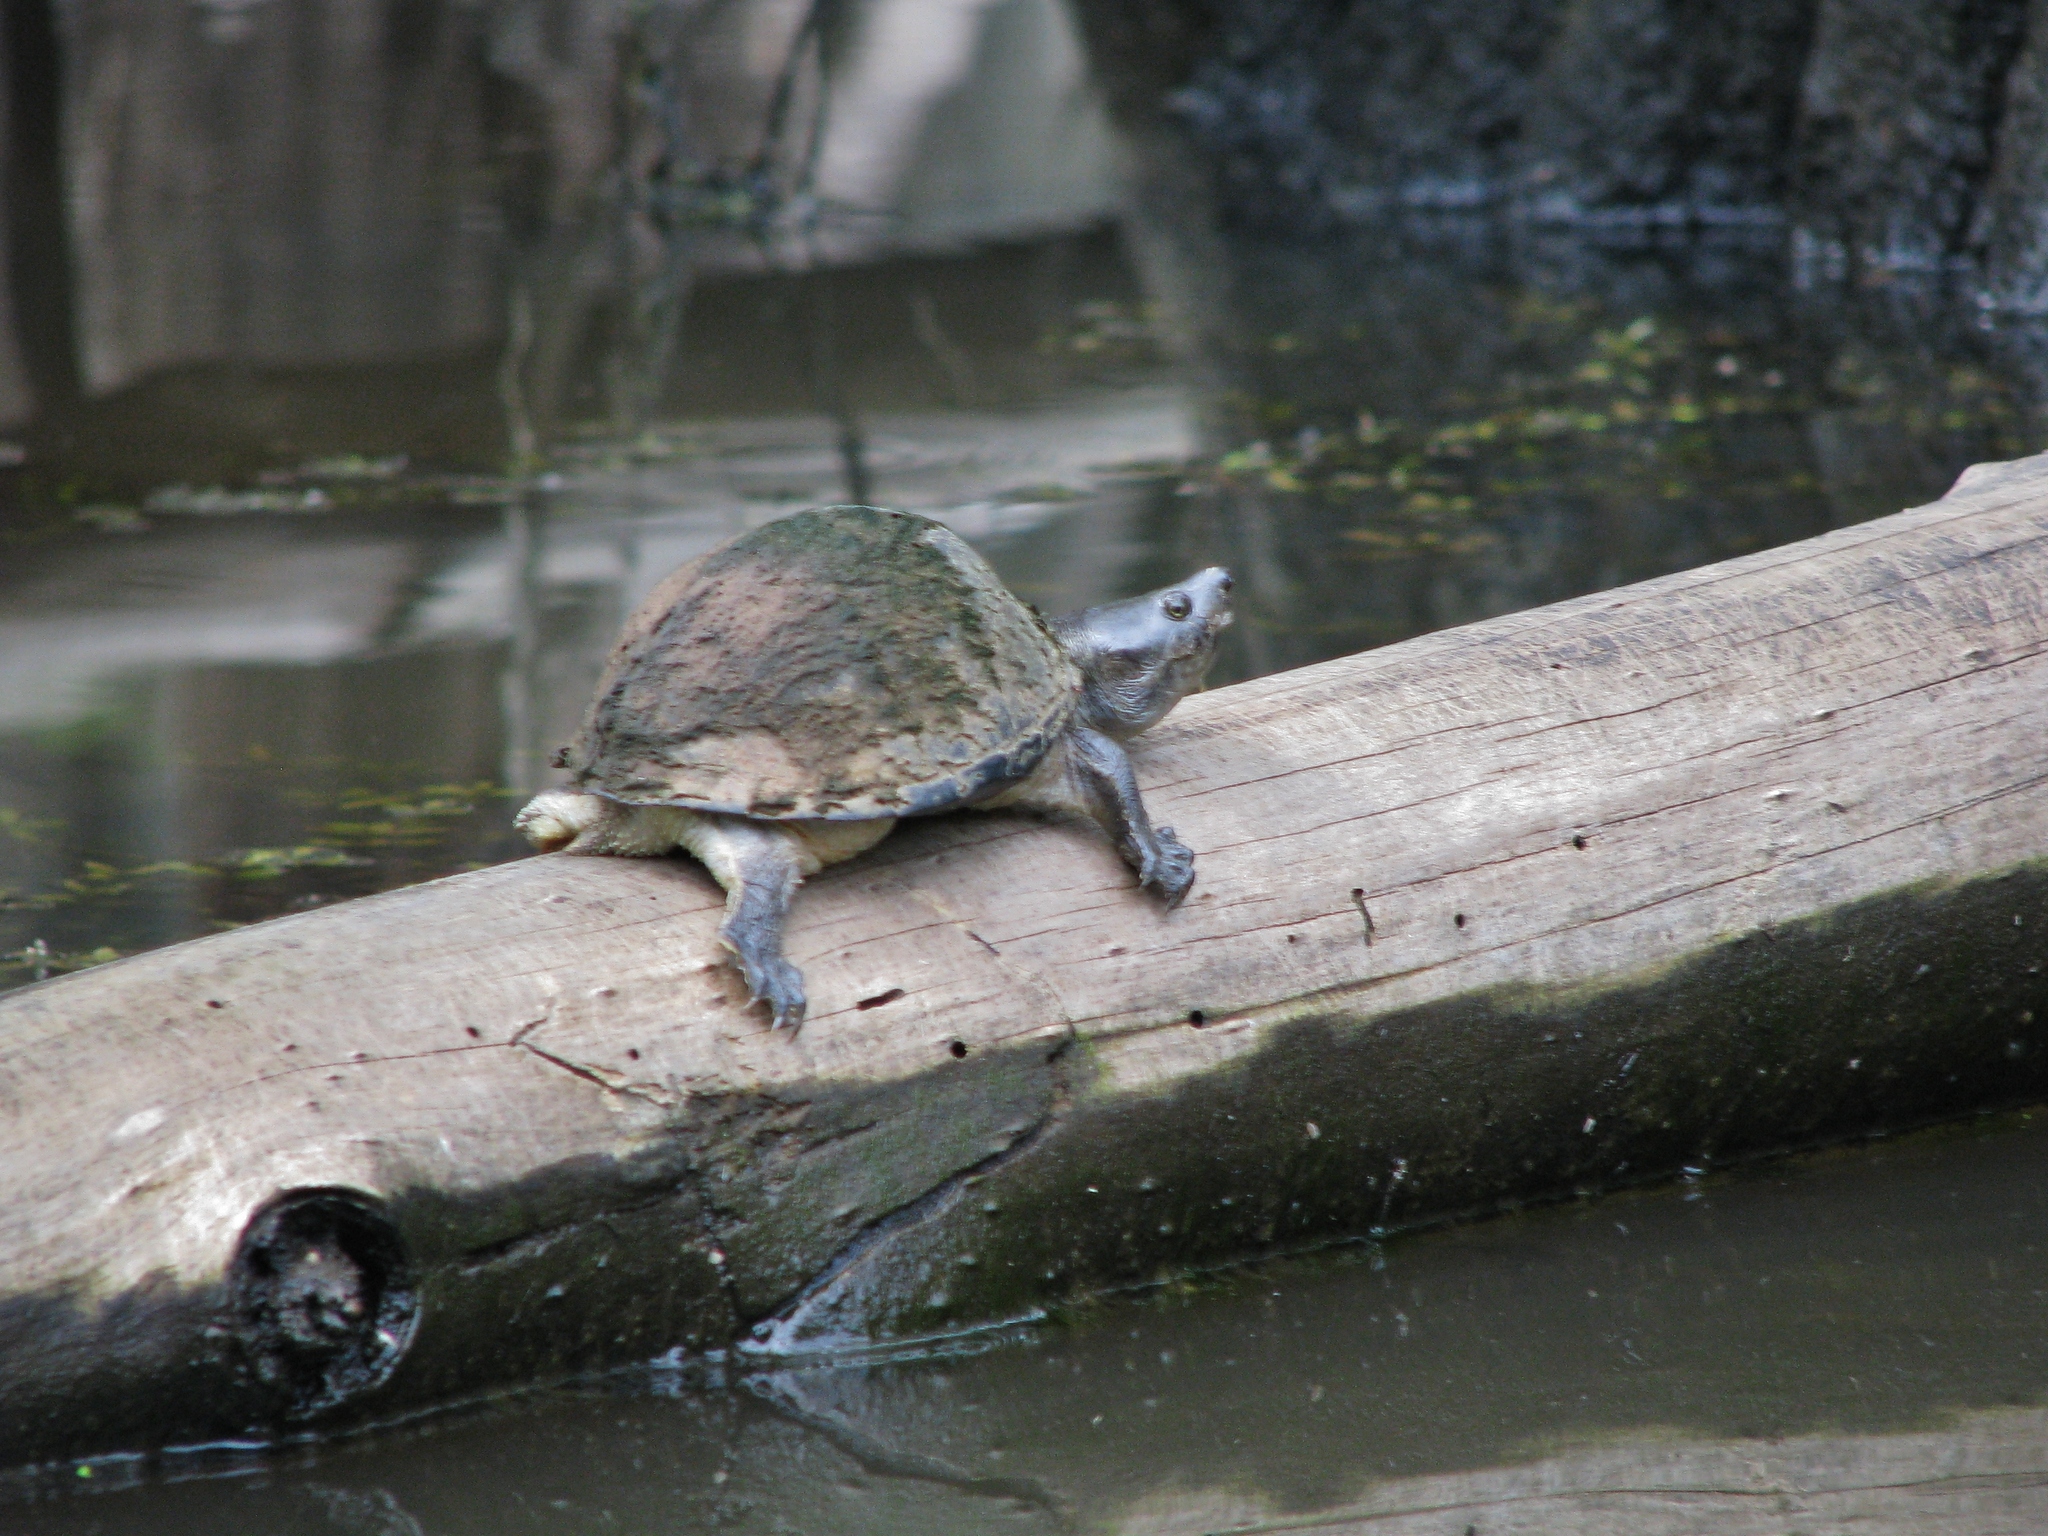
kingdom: Animalia
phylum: Chordata
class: Testudines
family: Kinosternidae
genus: Sternotherus
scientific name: Sternotherus carinatus
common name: Razor-backed musk turtle
